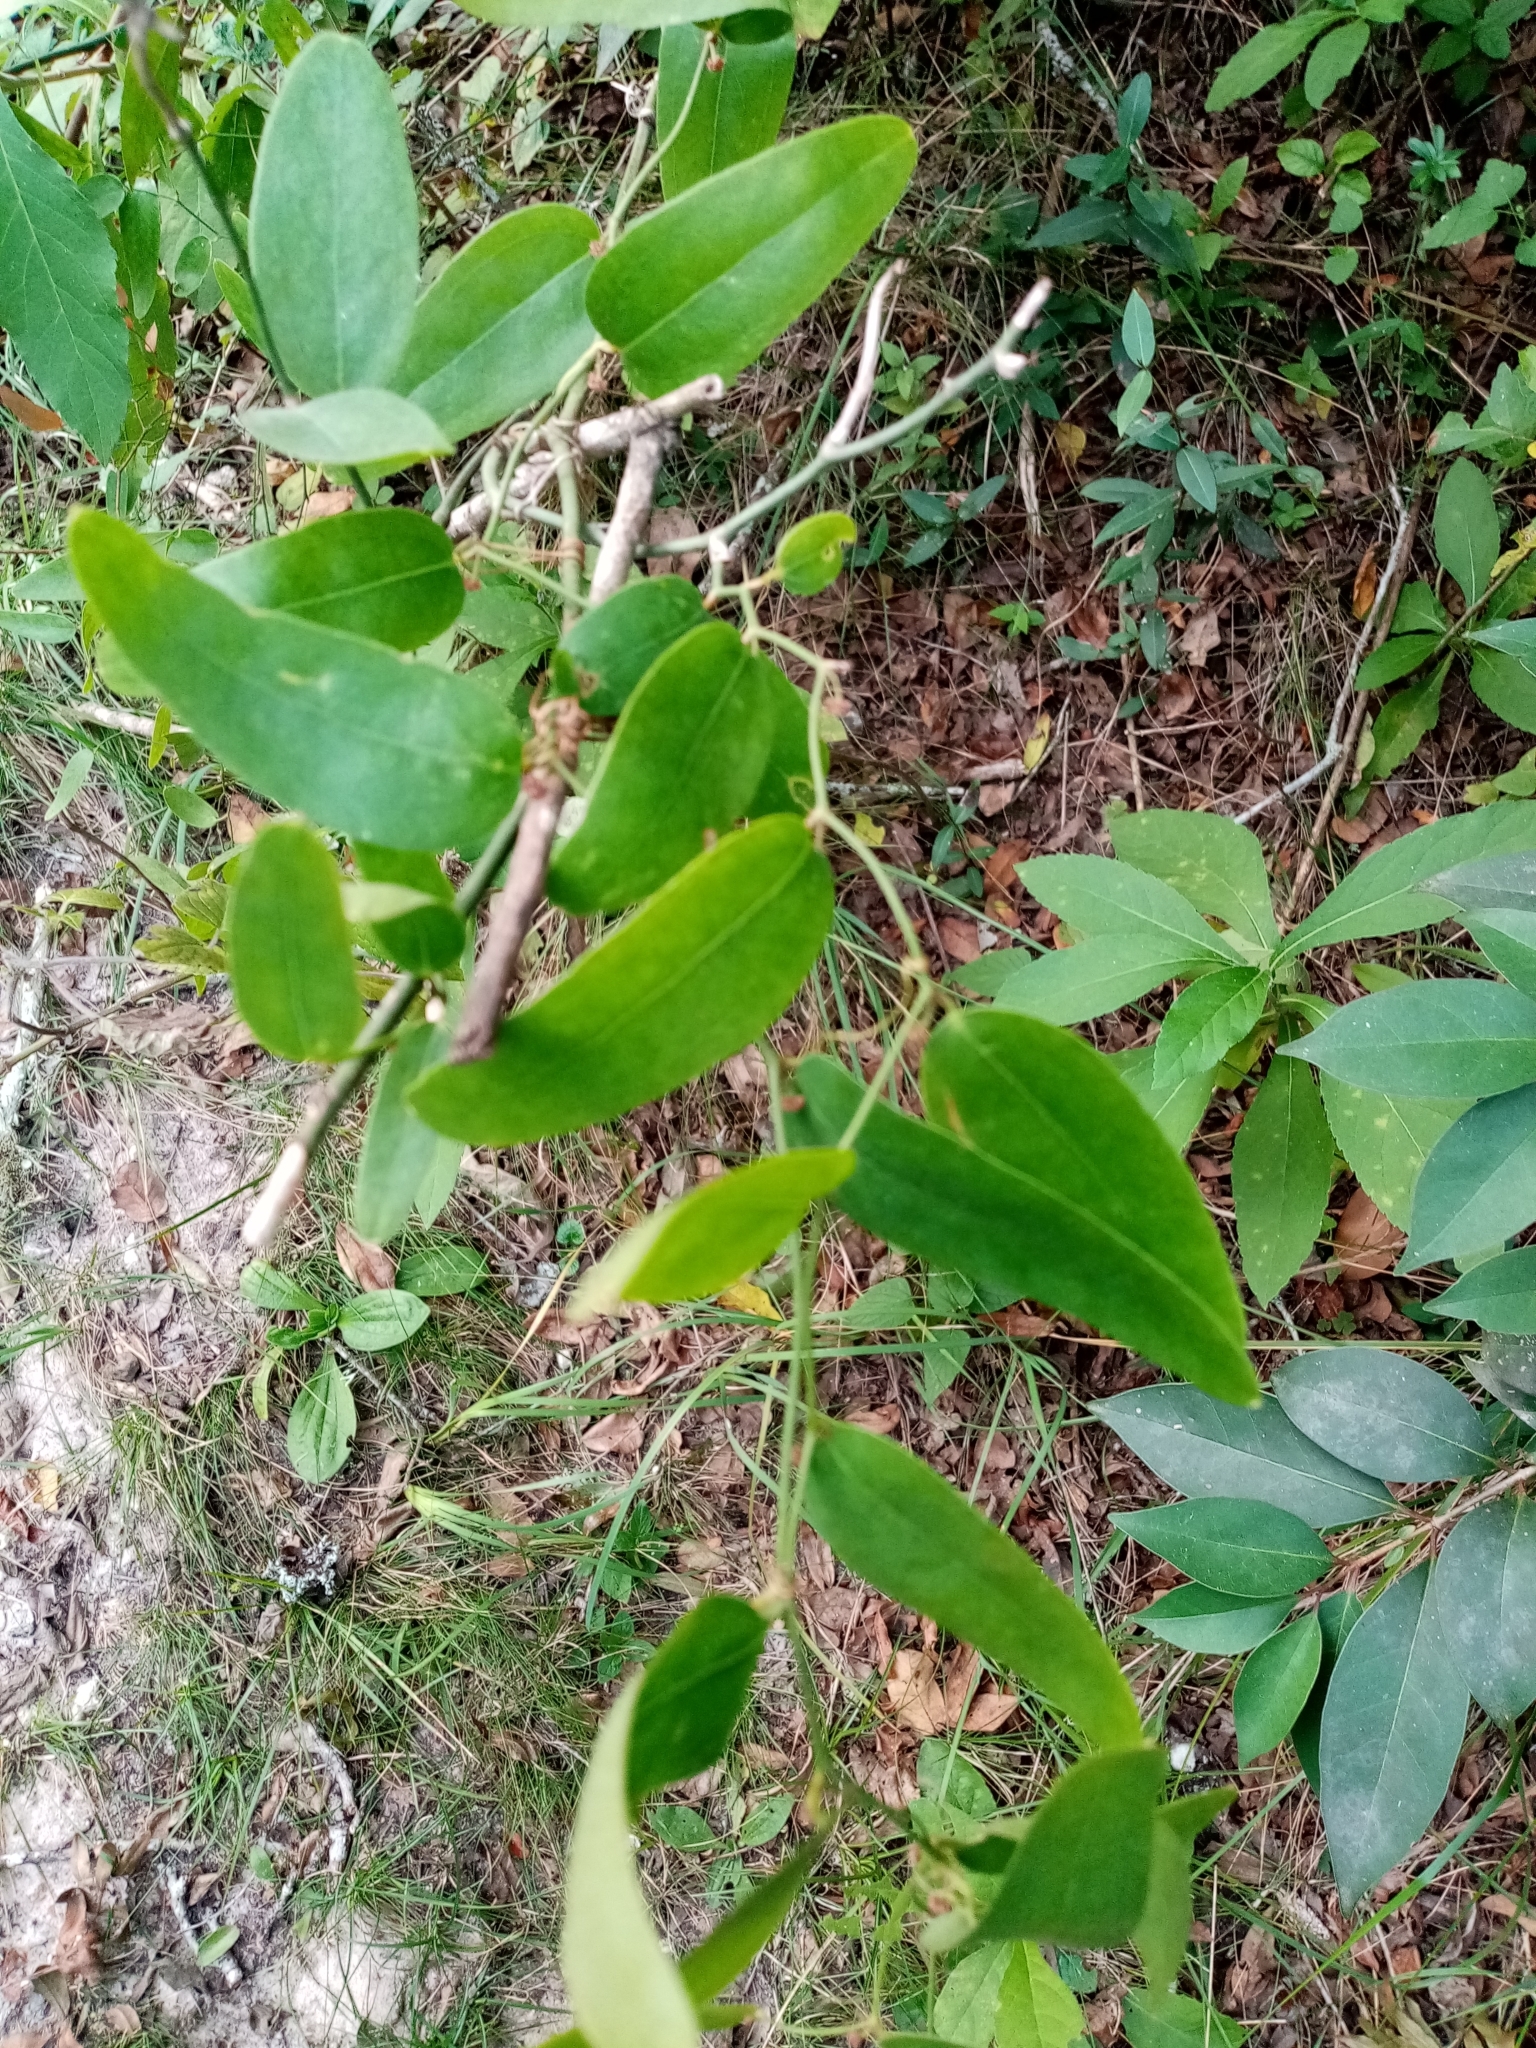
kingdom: Plantae
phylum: Tracheophyta
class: Liliopsida
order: Liliales
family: Smilacaceae
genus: Smilax
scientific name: Smilax campestris
